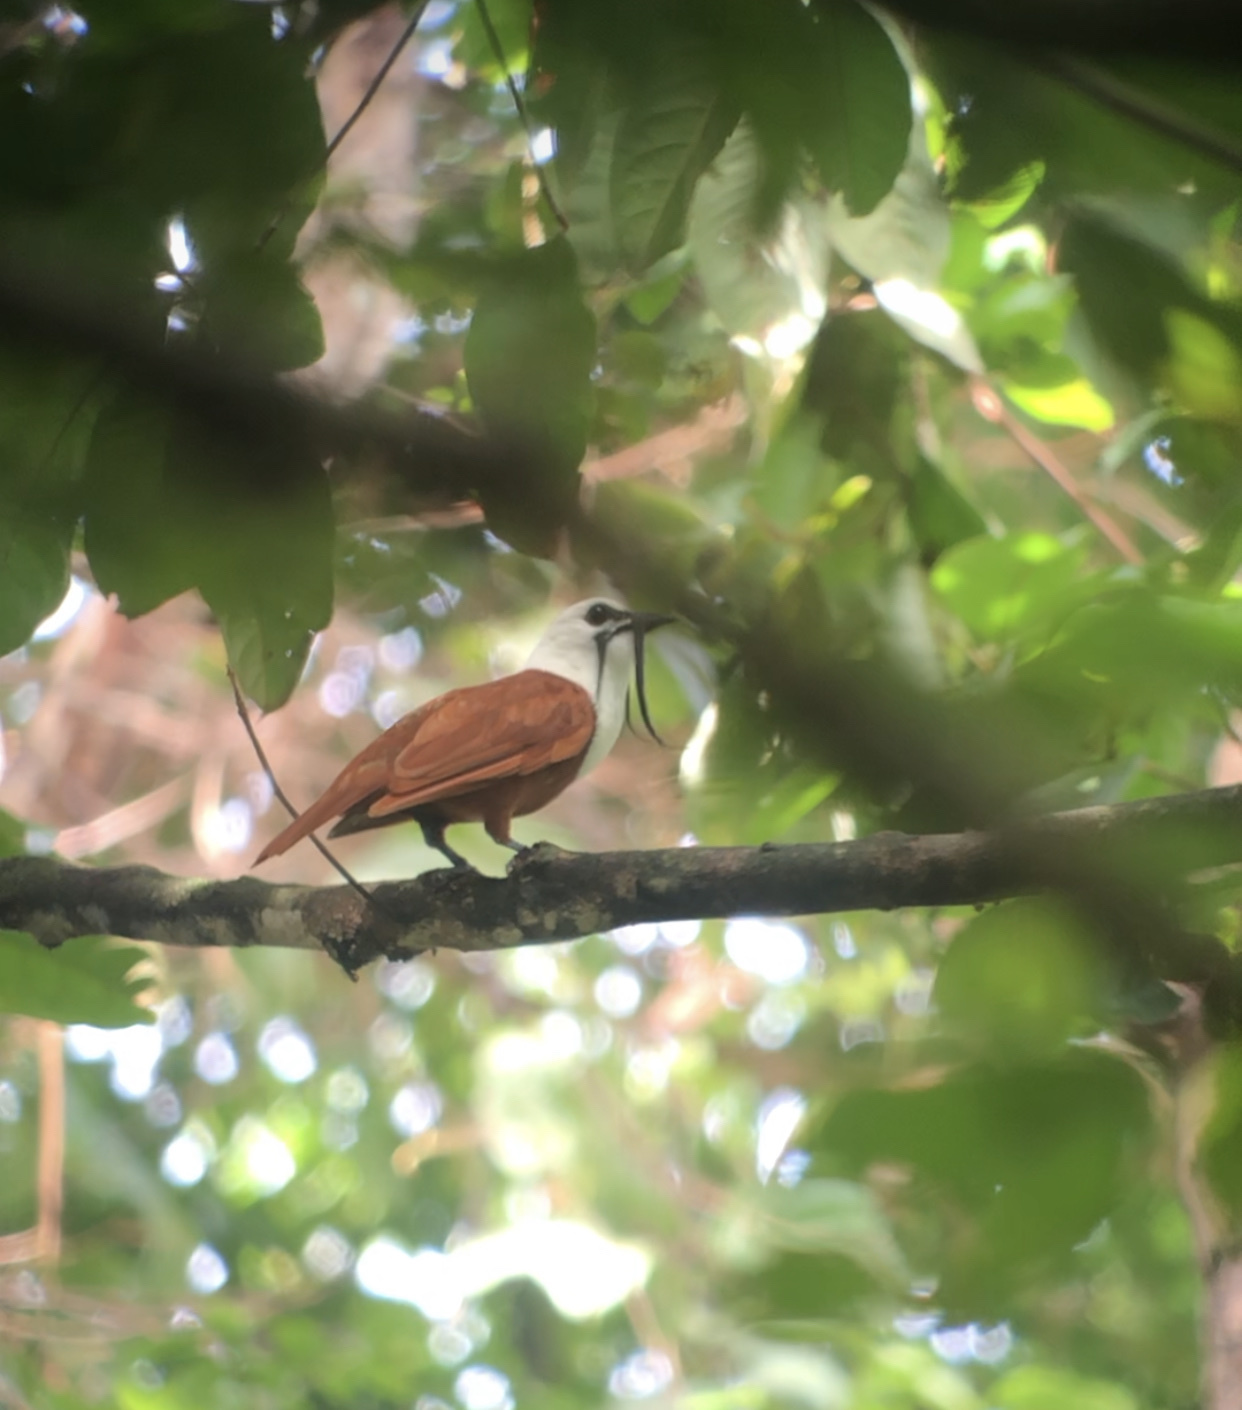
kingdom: Animalia
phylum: Chordata
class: Aves
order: Passeriformes
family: Cotingidae
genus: Procnias
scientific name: Procnias tricarunculatus
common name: Three-wattled bellbird
